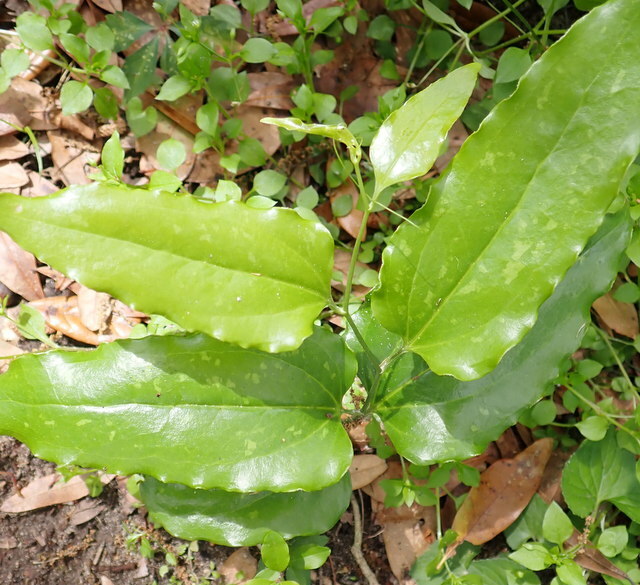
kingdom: Plantae
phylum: Tracheophyta
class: Liliopsida
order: Liliales
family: Smilacaceae
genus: Smilax
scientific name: Smilax maritima
